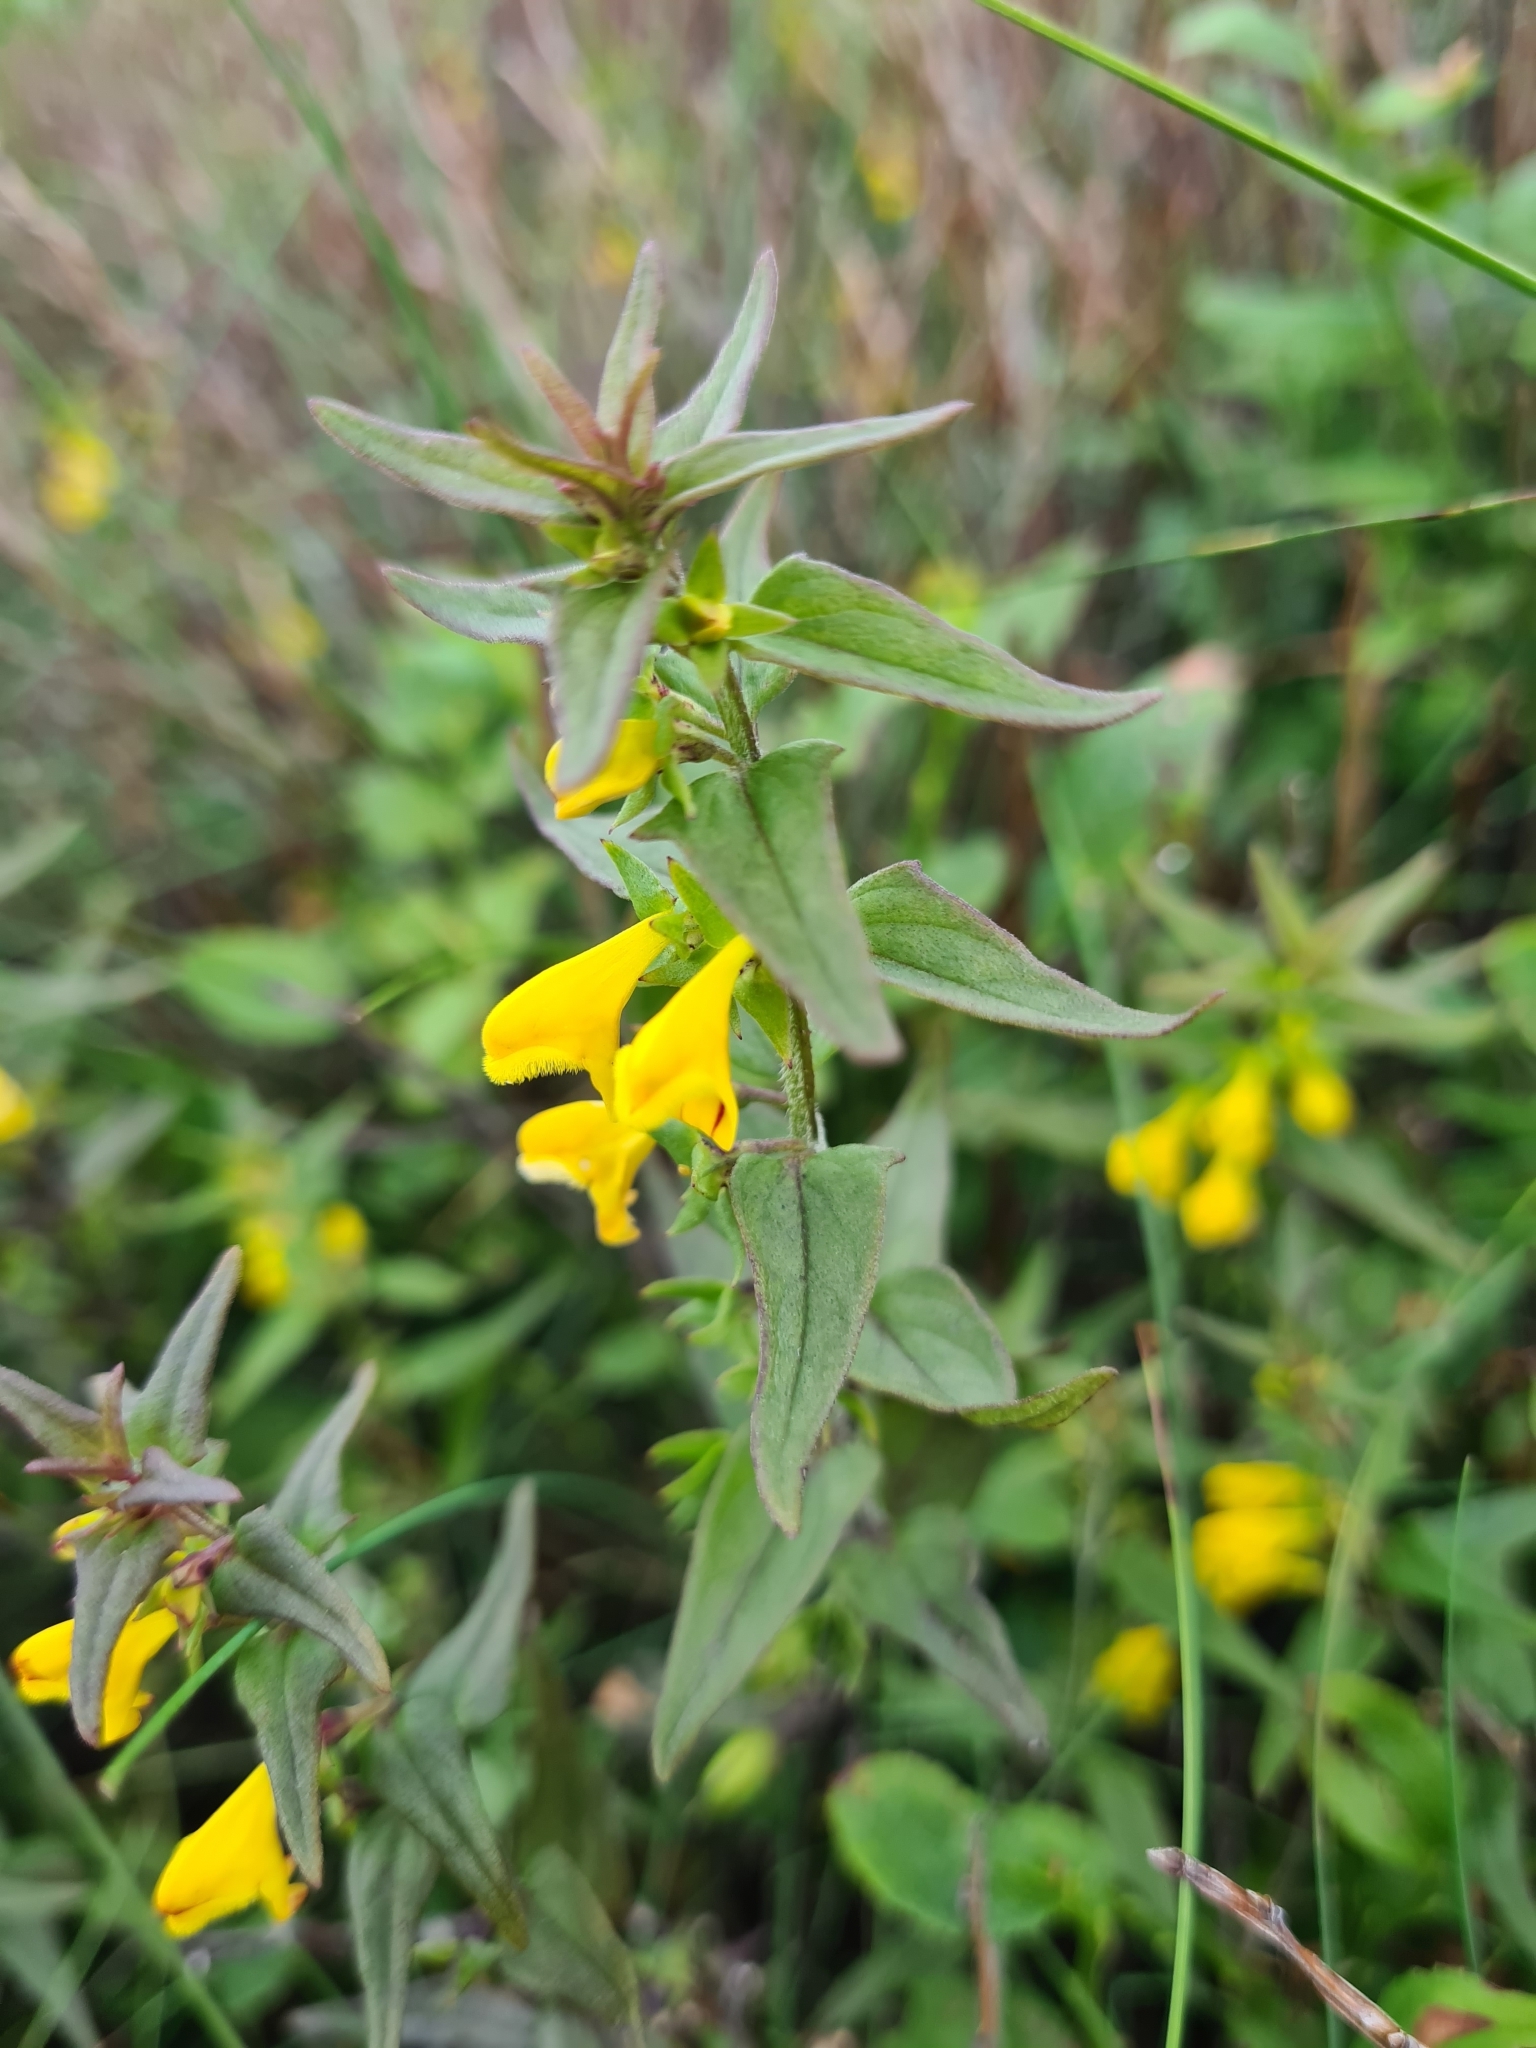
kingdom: Plantae
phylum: Tracheophyta
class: Magnoliopsida
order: Lamiales
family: Orobanchaceae
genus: Melampyrum
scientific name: Melampyrum sylvaticum
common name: Small cow-wheat
